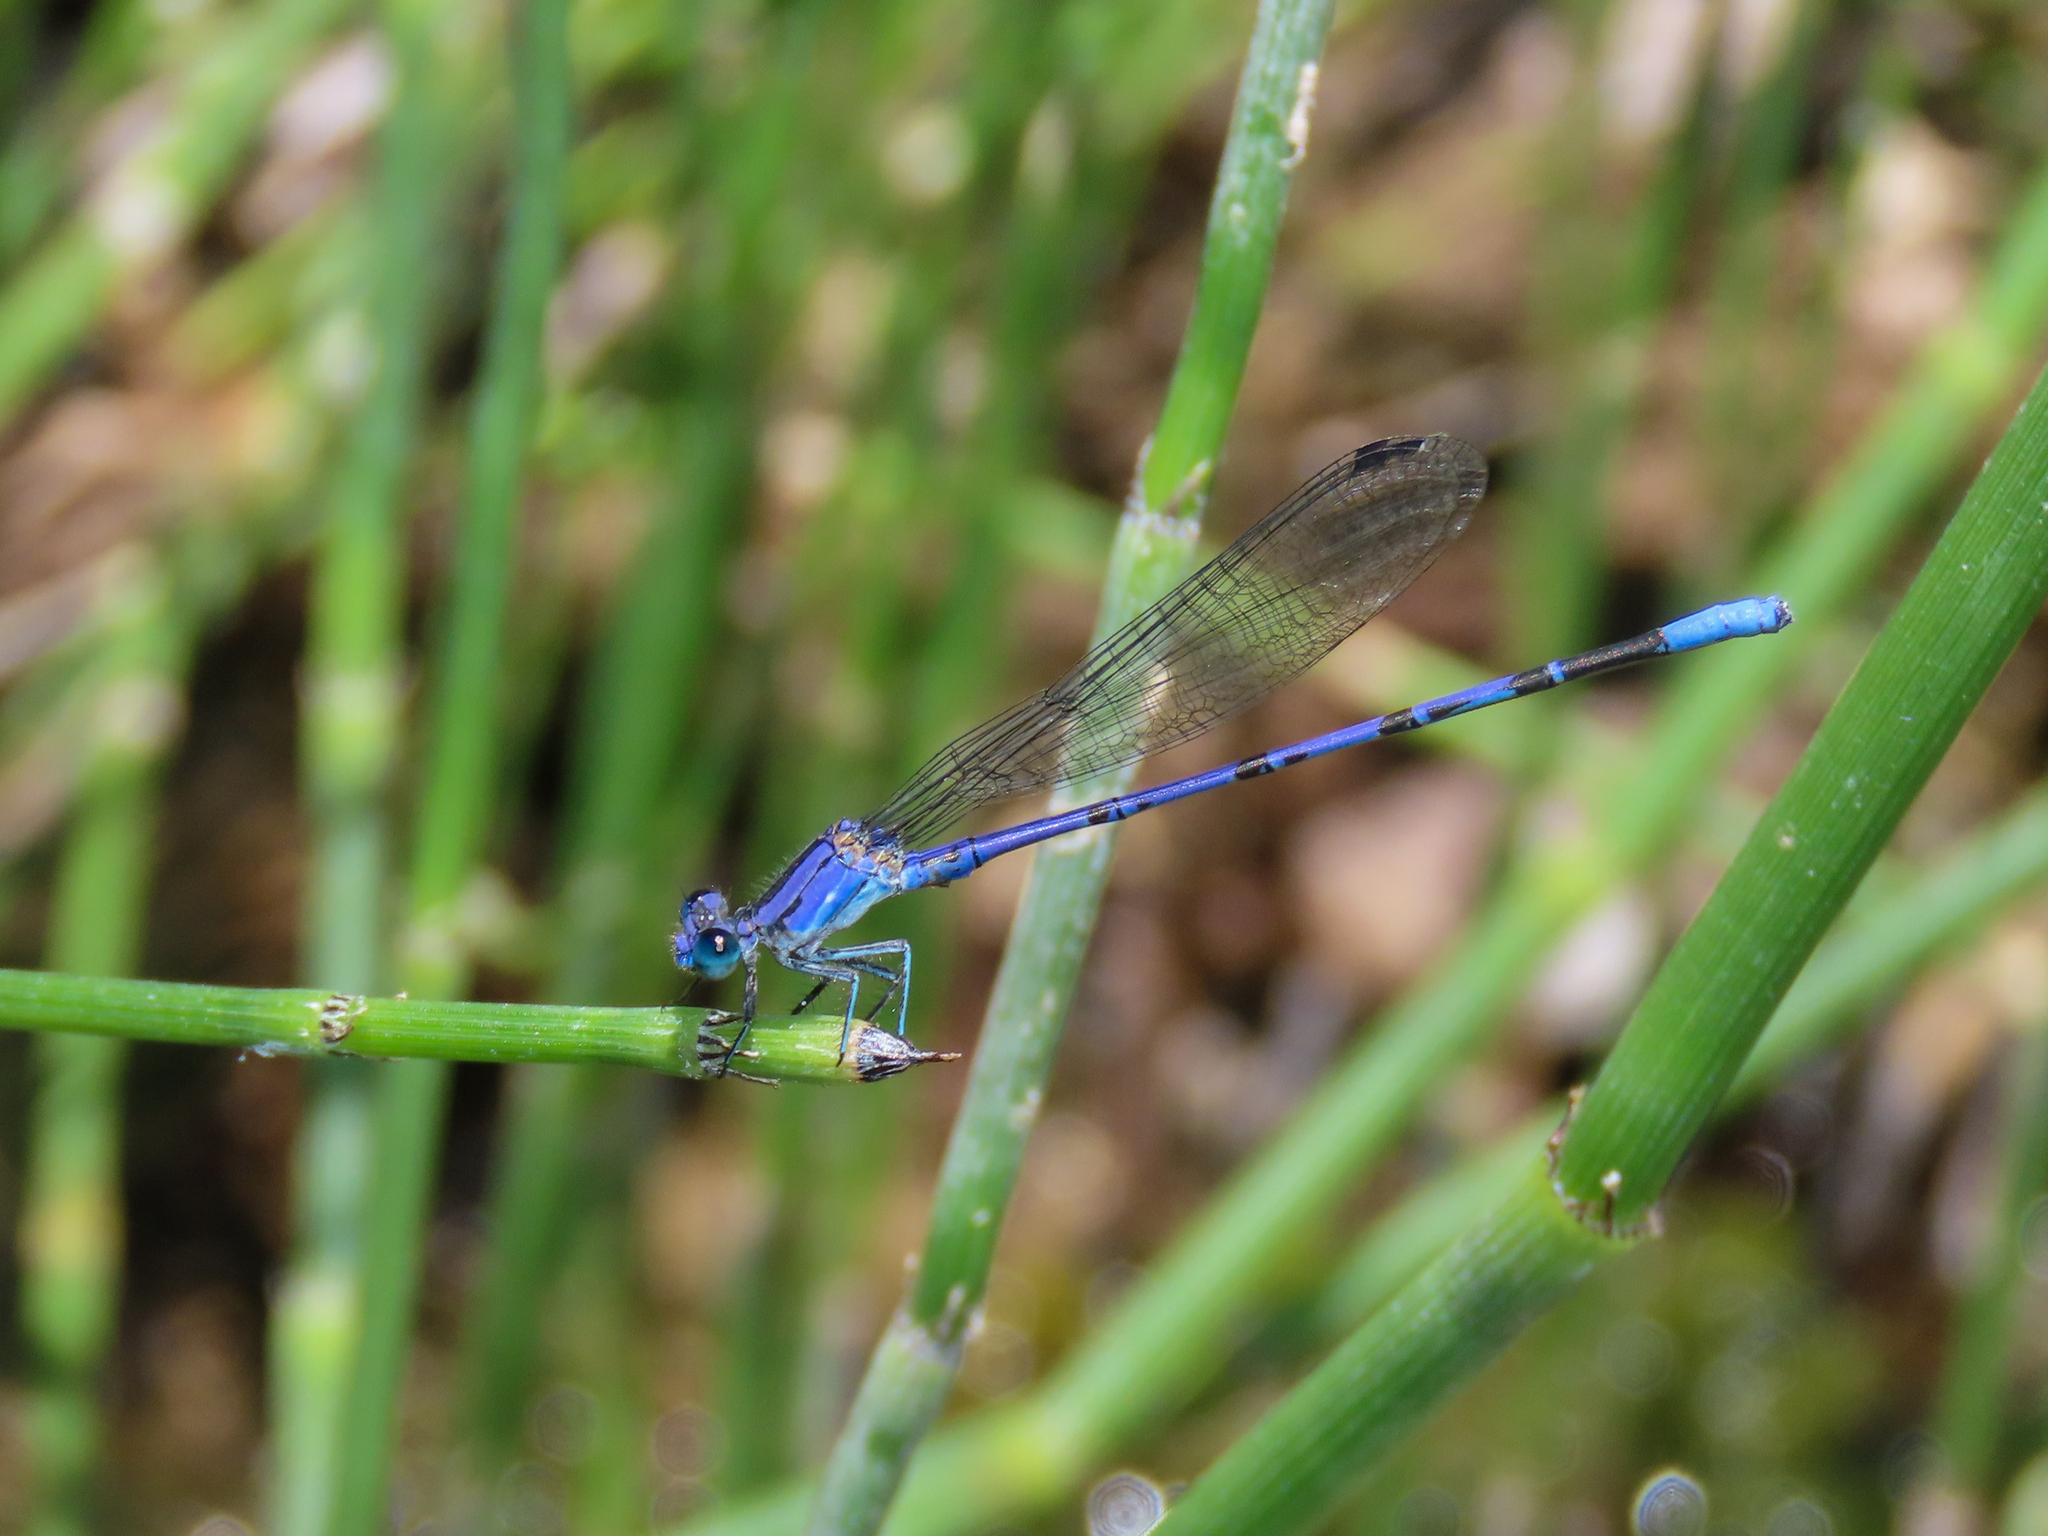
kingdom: Animalia
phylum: Arthropoda
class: Insecta
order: Odonata
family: Coenagrionidae
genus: Argia
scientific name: Argia funebris
